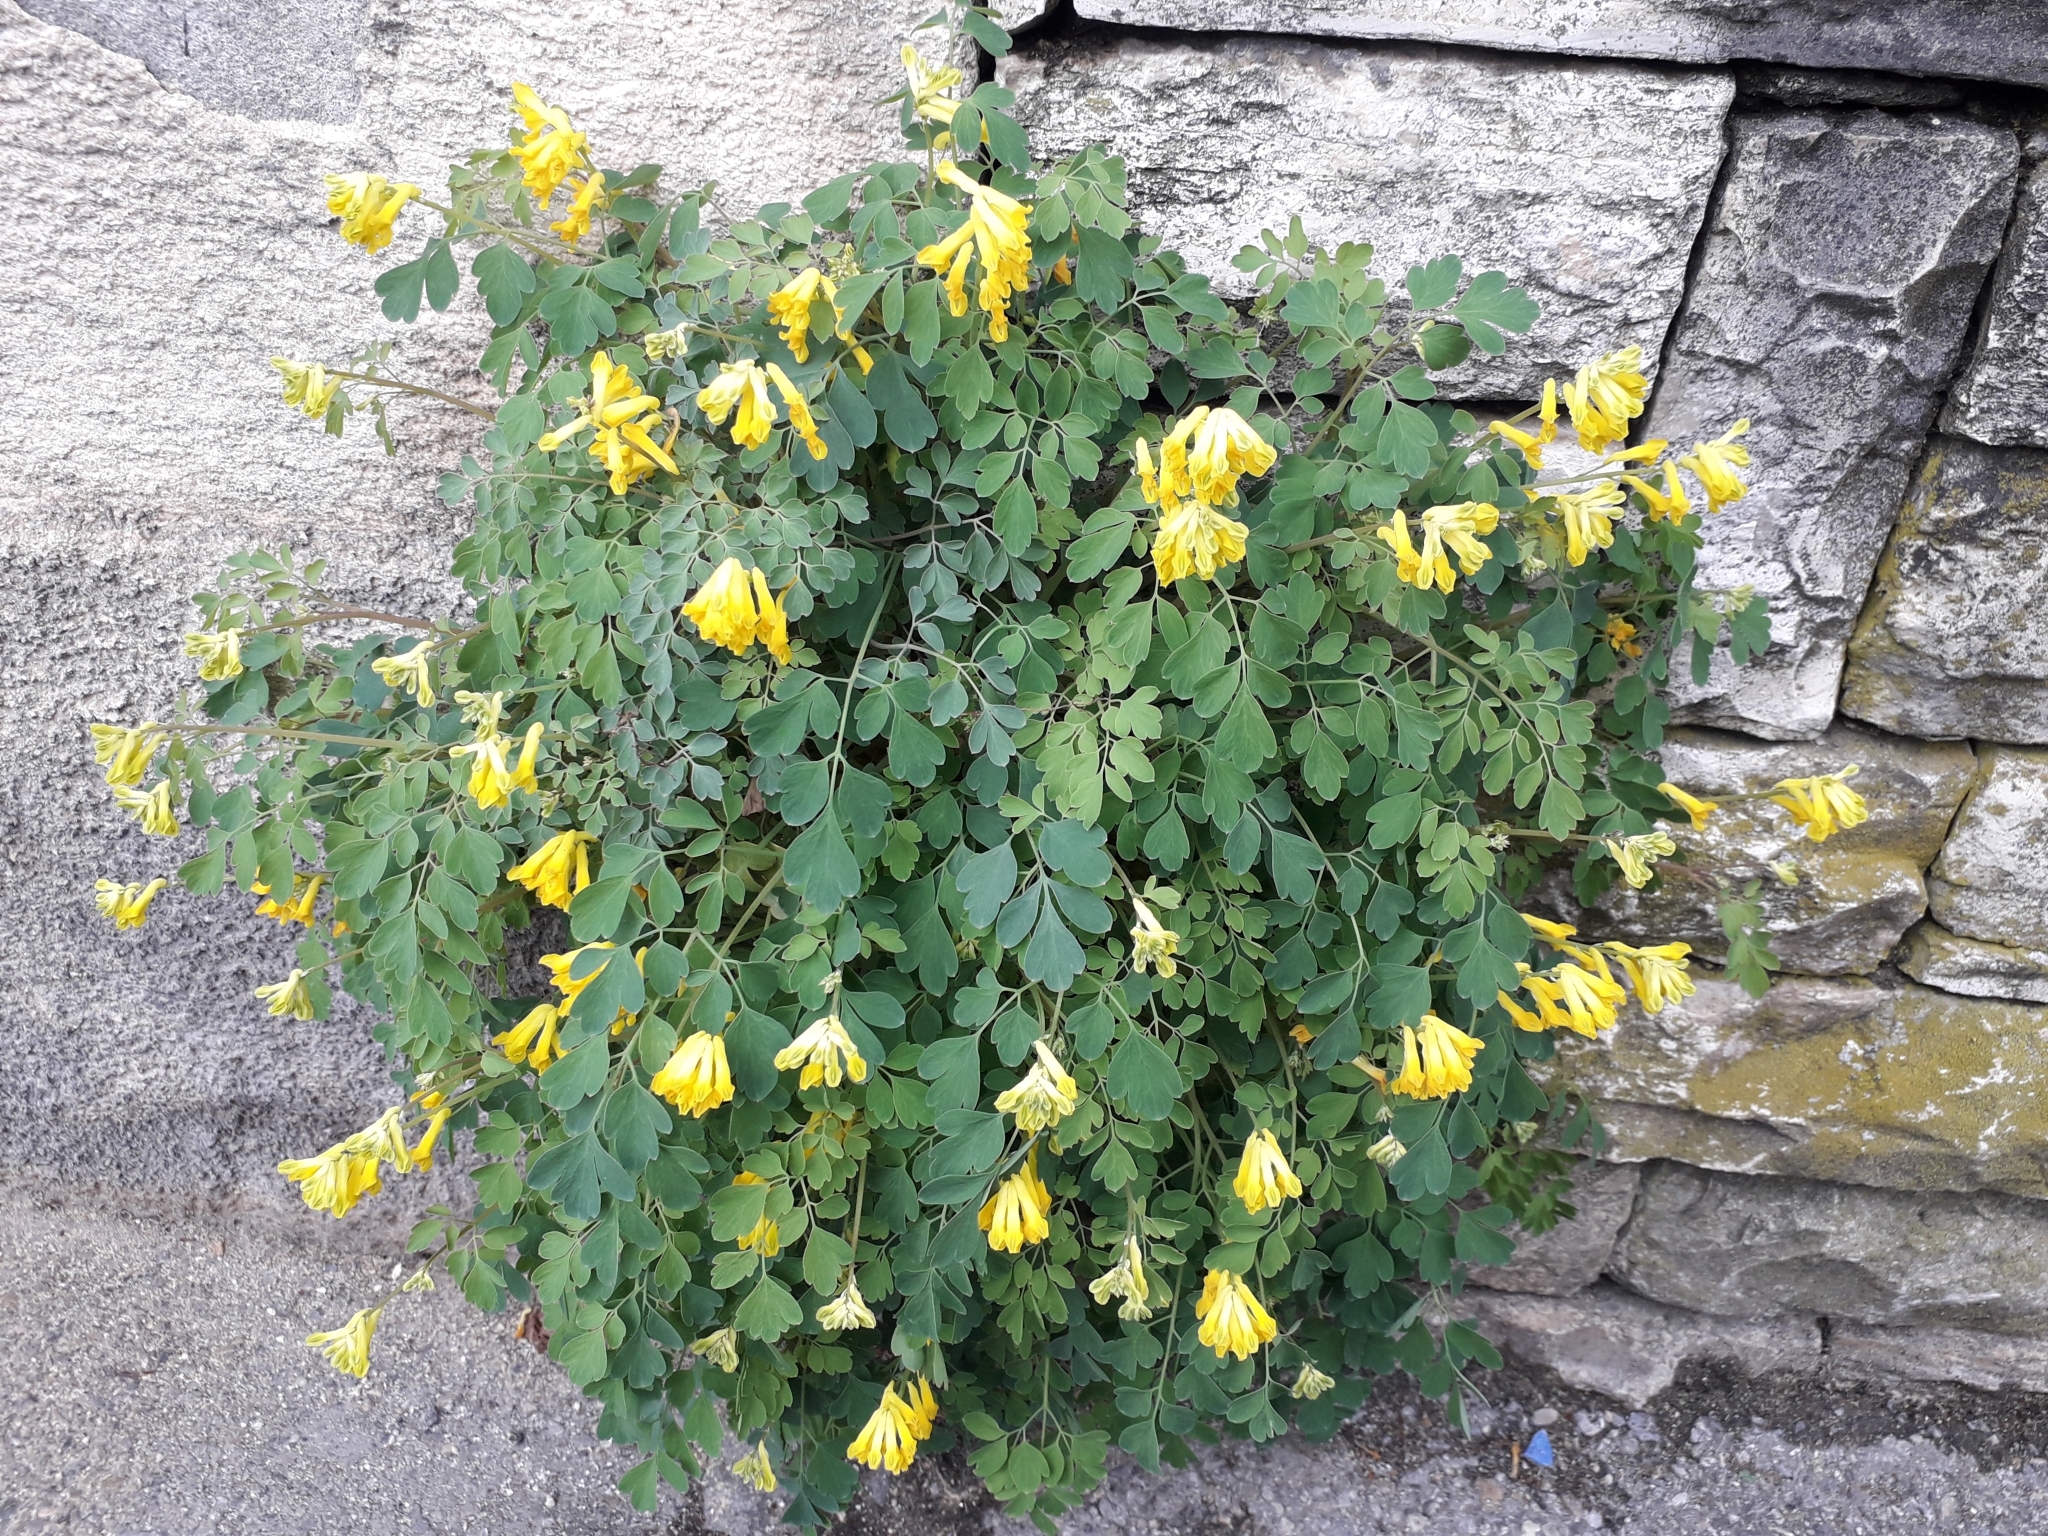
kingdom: Plantae
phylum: Tracheophyta
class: Magnoliopsida
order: Ranunculales
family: Papaveraceae
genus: Pseudofumaria
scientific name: Pseudofumaria lutea
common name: Yellow corydalis
